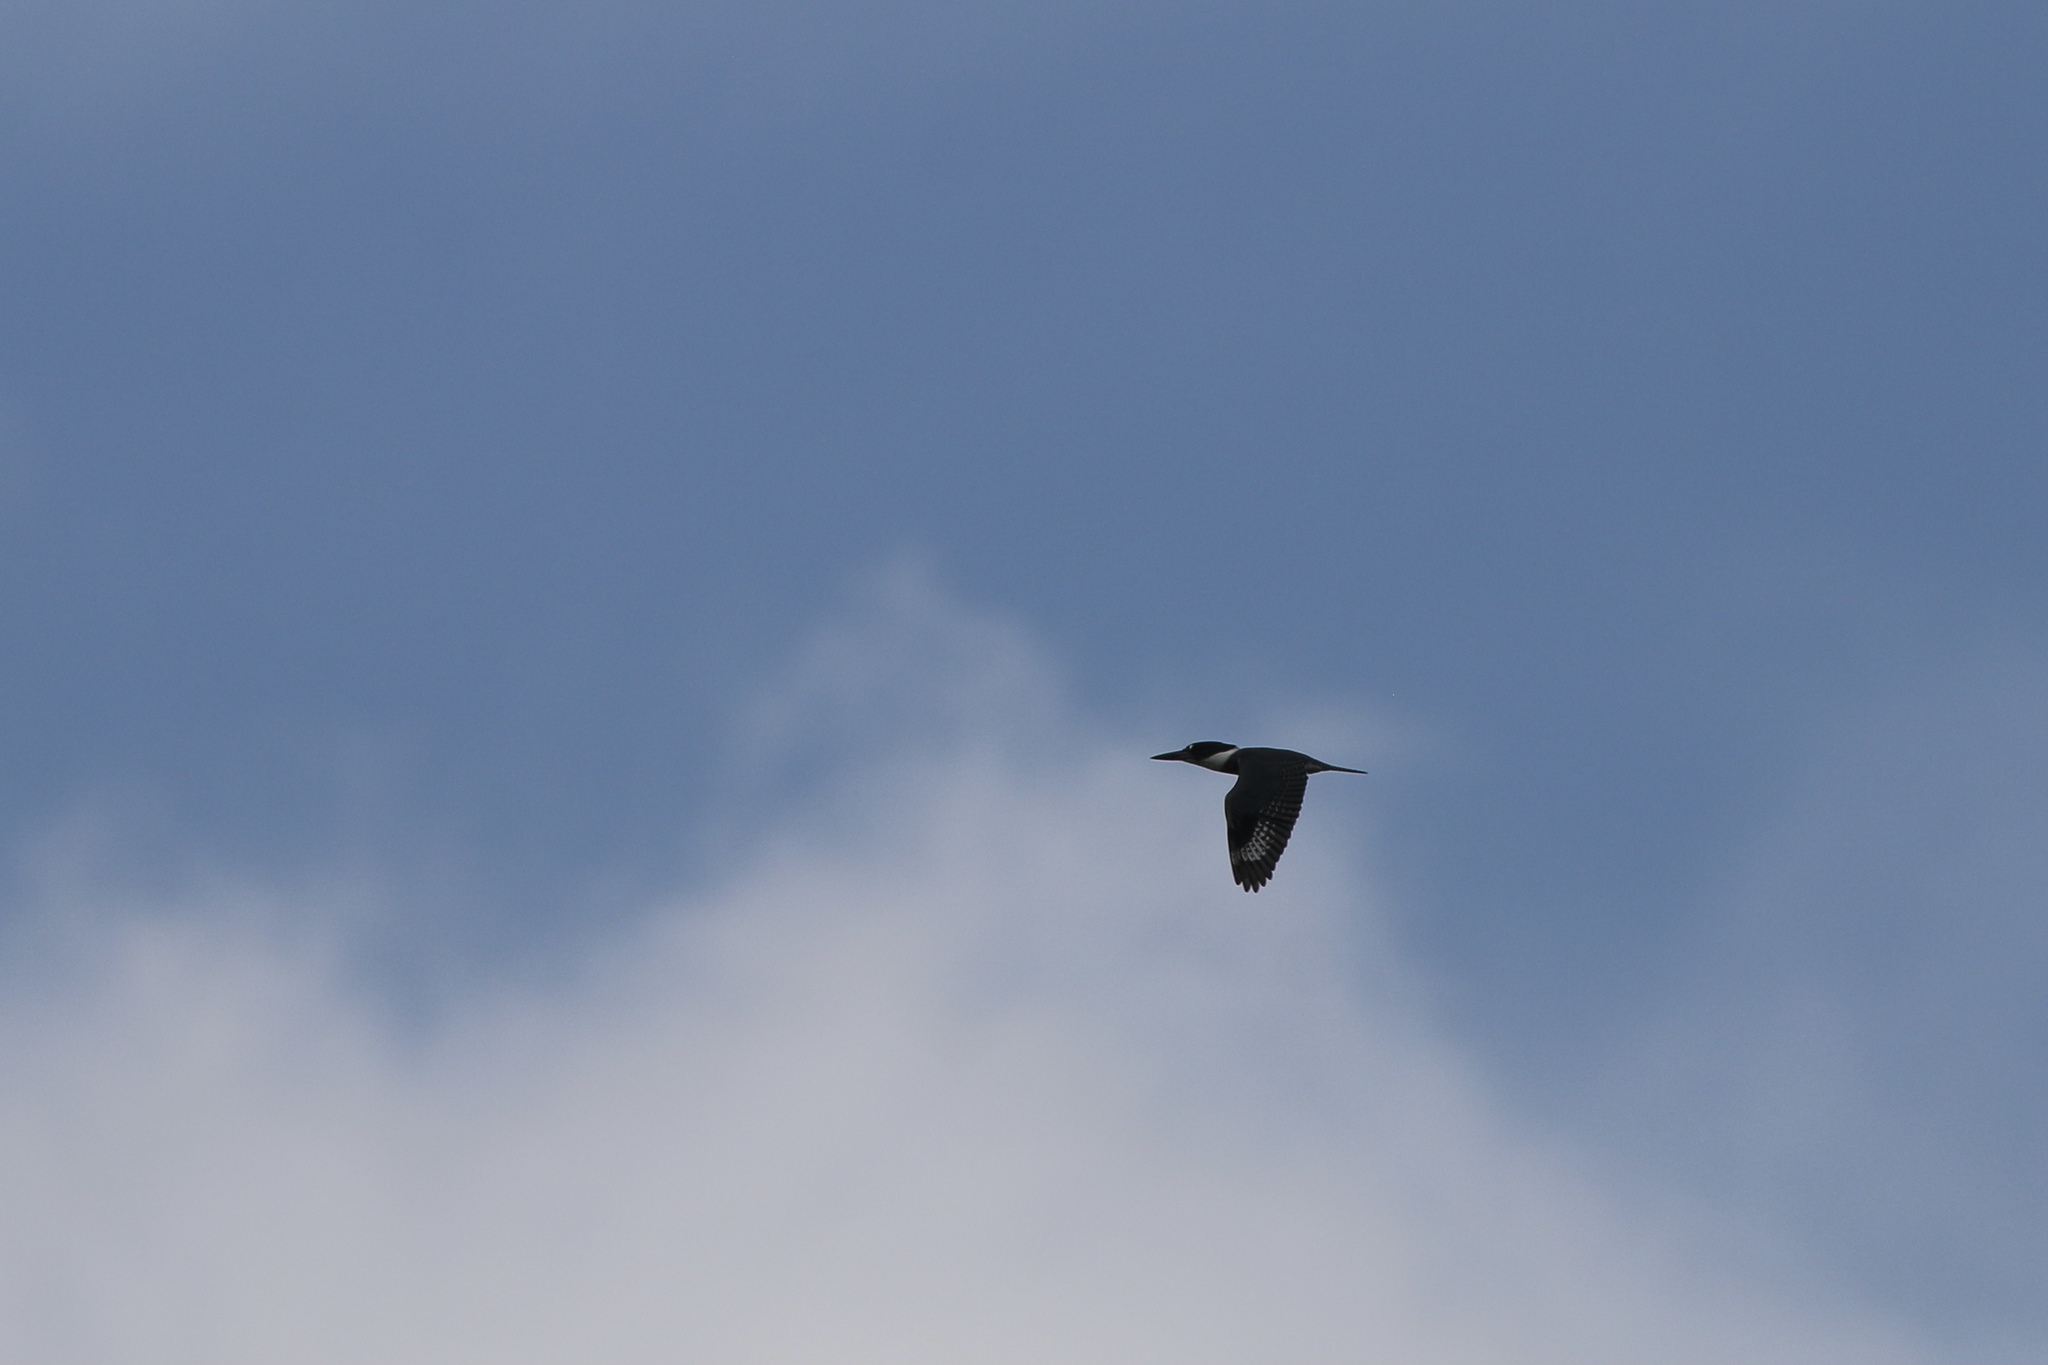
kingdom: Animalia
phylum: Chordata
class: Aves
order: Coraciiformes
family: Alcedinidae
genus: Megaceryle
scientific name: Megaceryle alcyon
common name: Belted kingfisher
